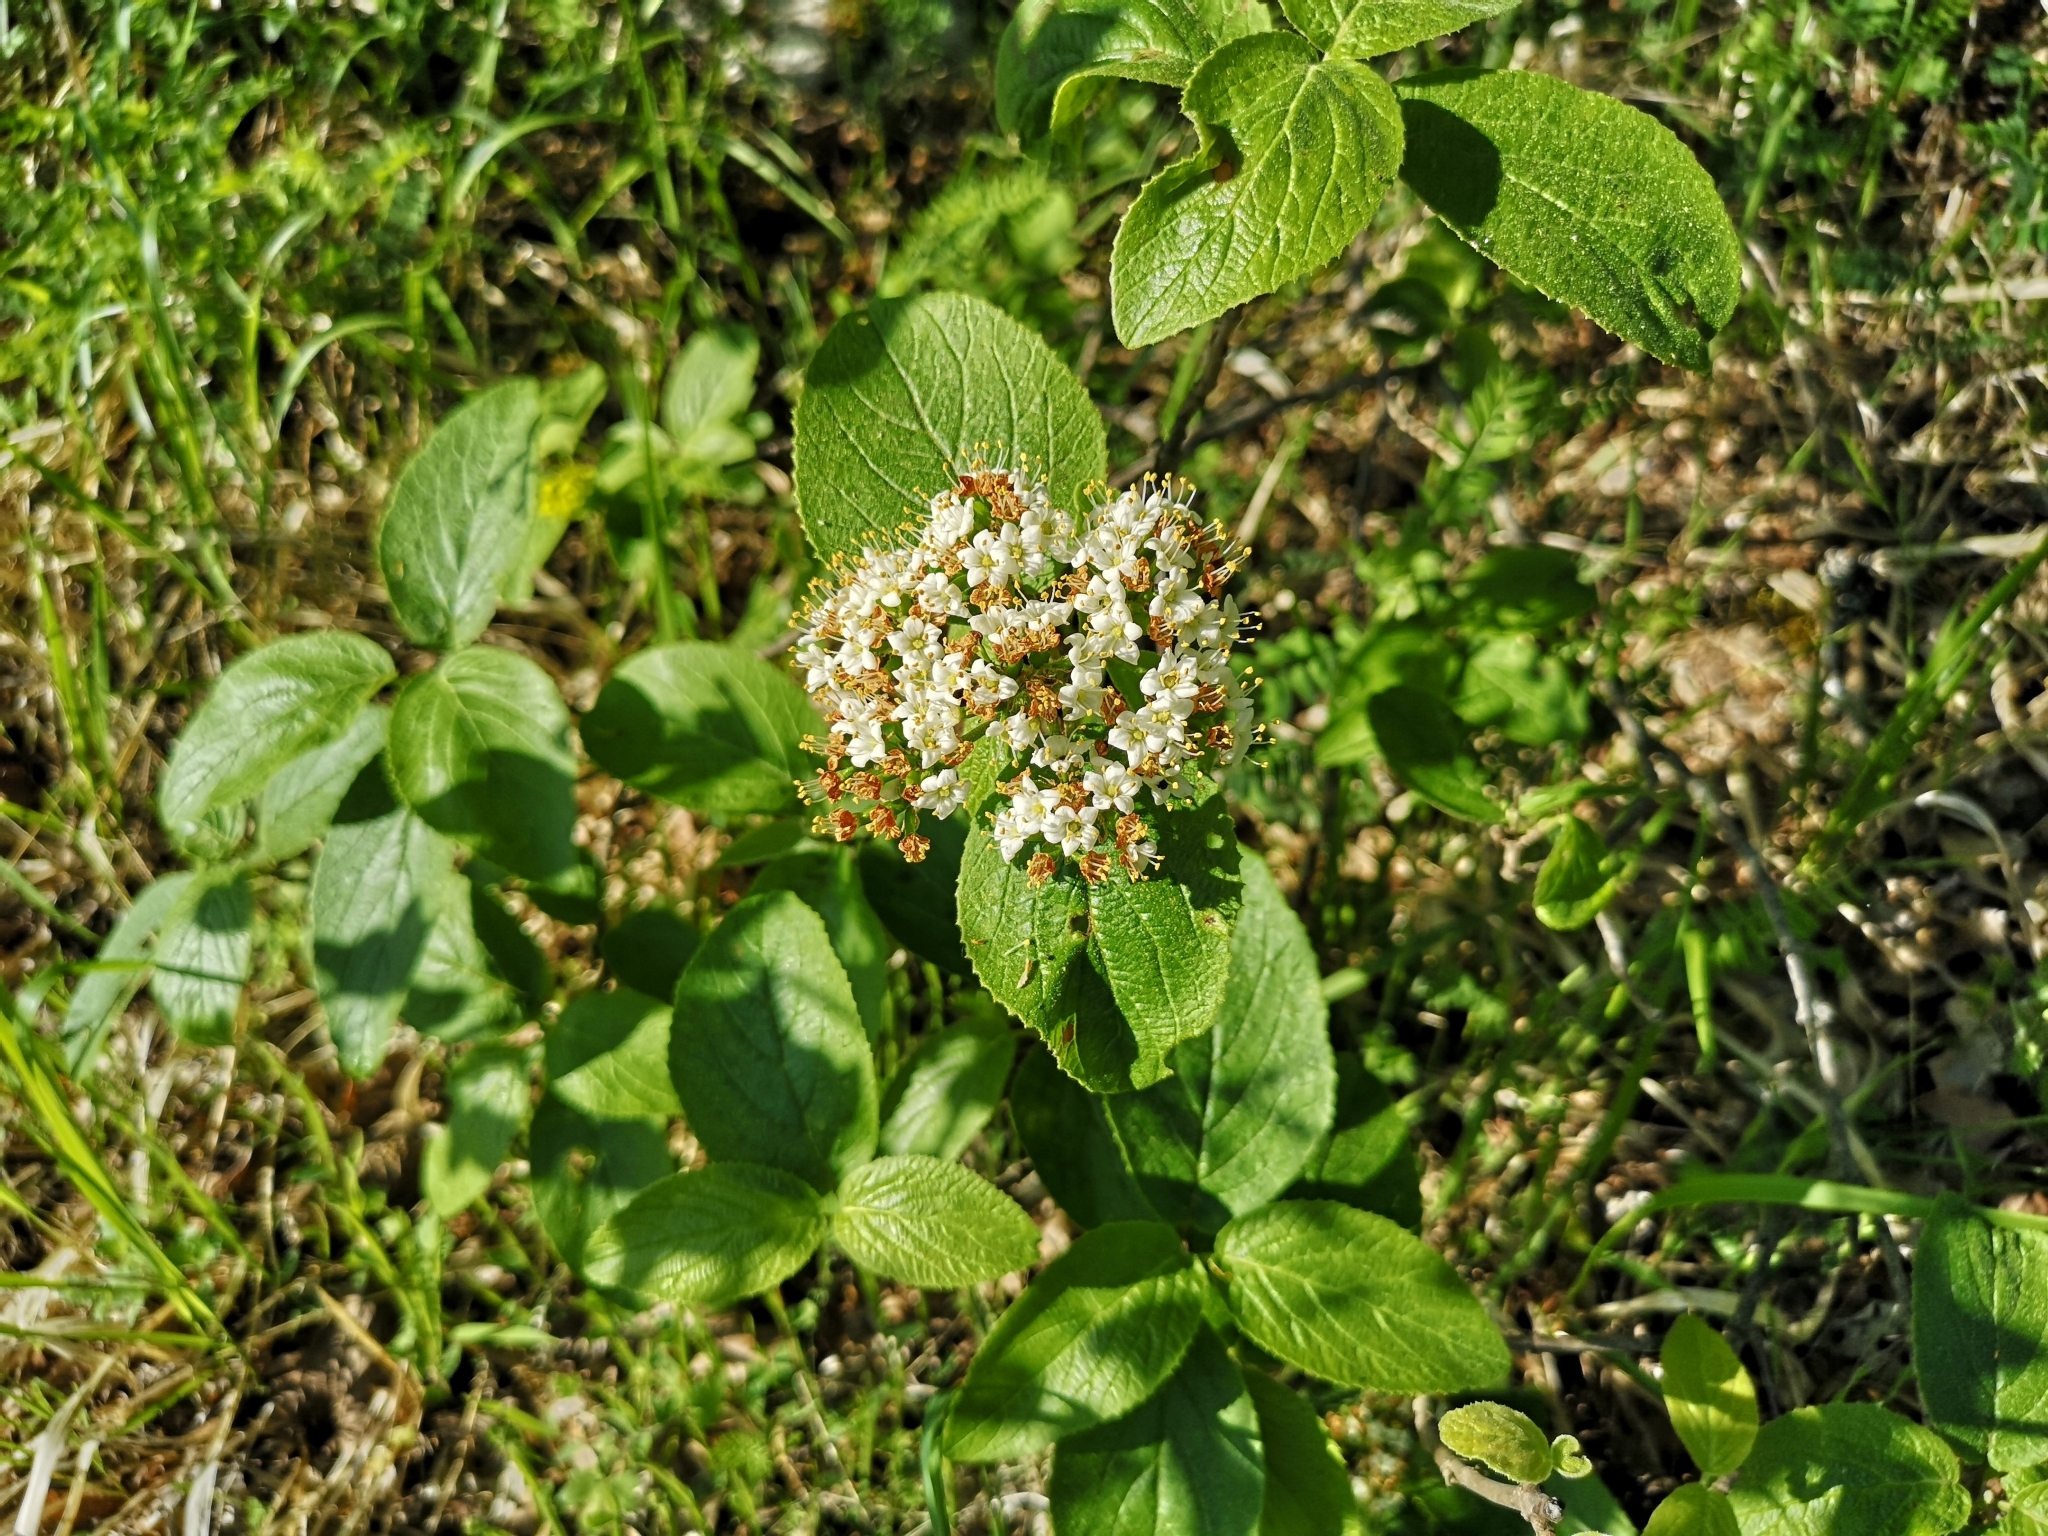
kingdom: Plantae
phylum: Tracheophyta
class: Magnoliopsida
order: Dipsacales
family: Viburnaceae
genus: Viburnum
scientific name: Viburnum lantana
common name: Wayfaring tree
